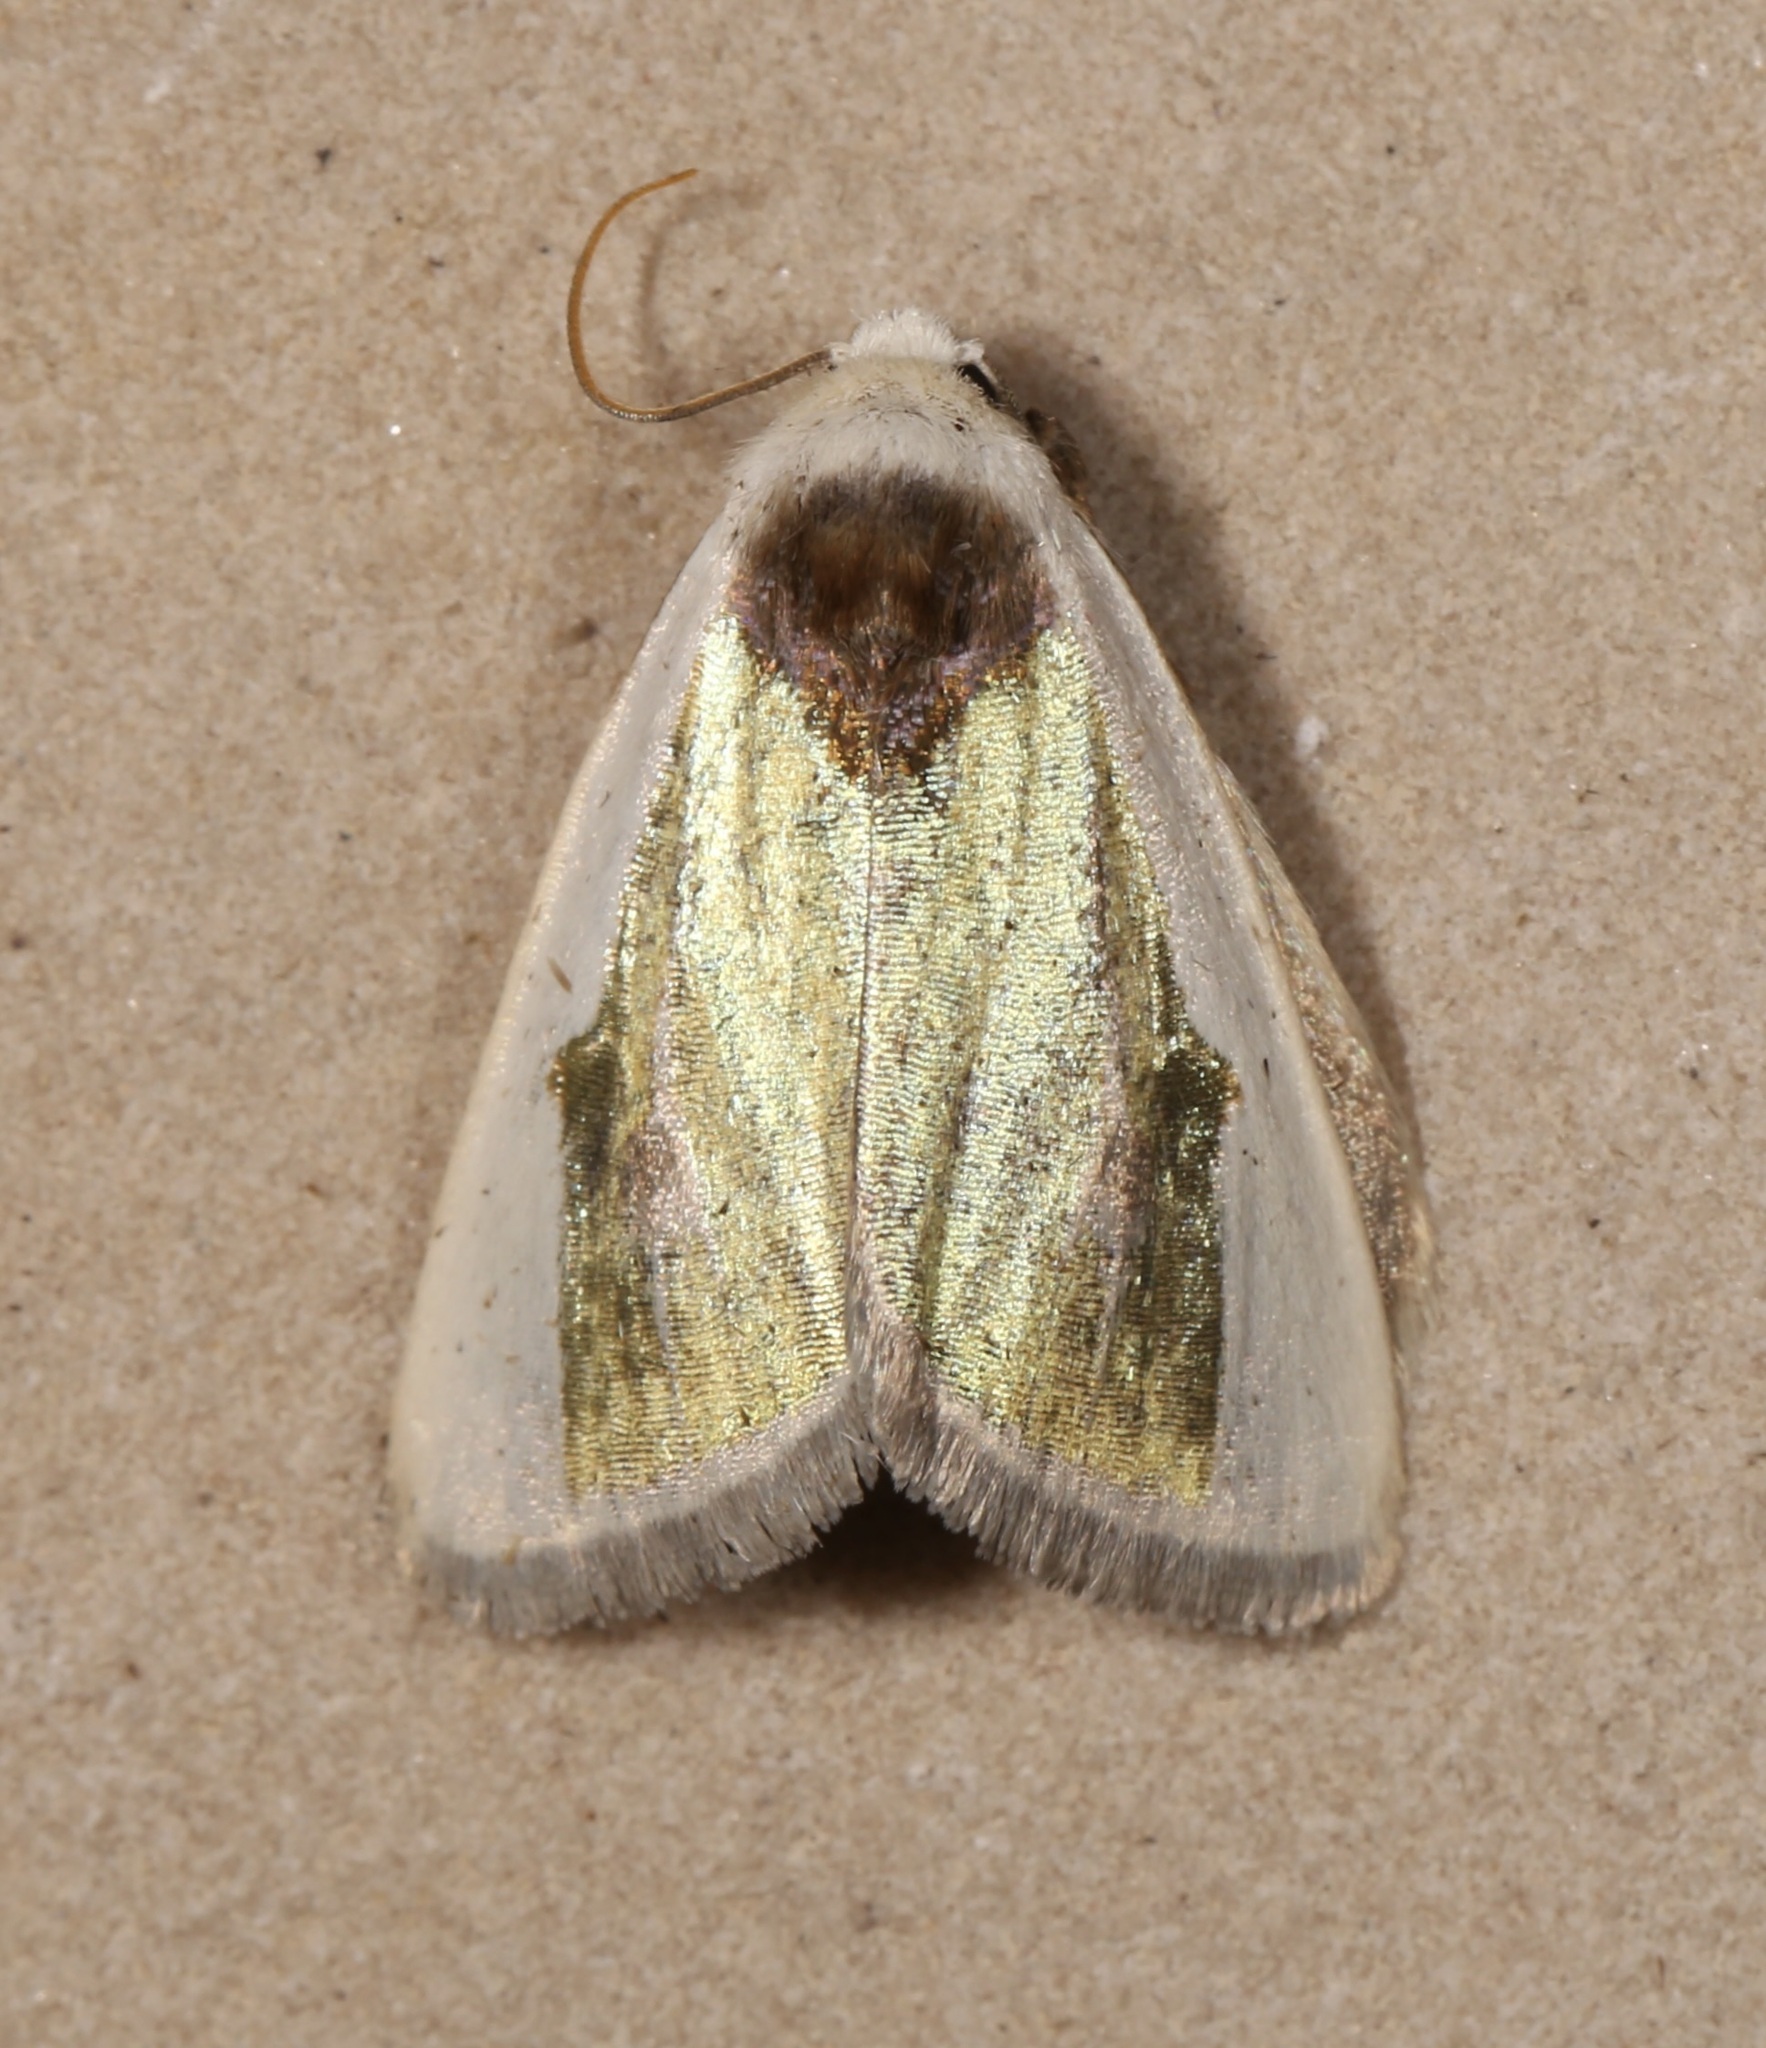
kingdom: Animalia
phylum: Arthropoda
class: Insecta
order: Lepidoptera
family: Noctuidae
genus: Neumoegenia
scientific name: Neumoegenia poetica
